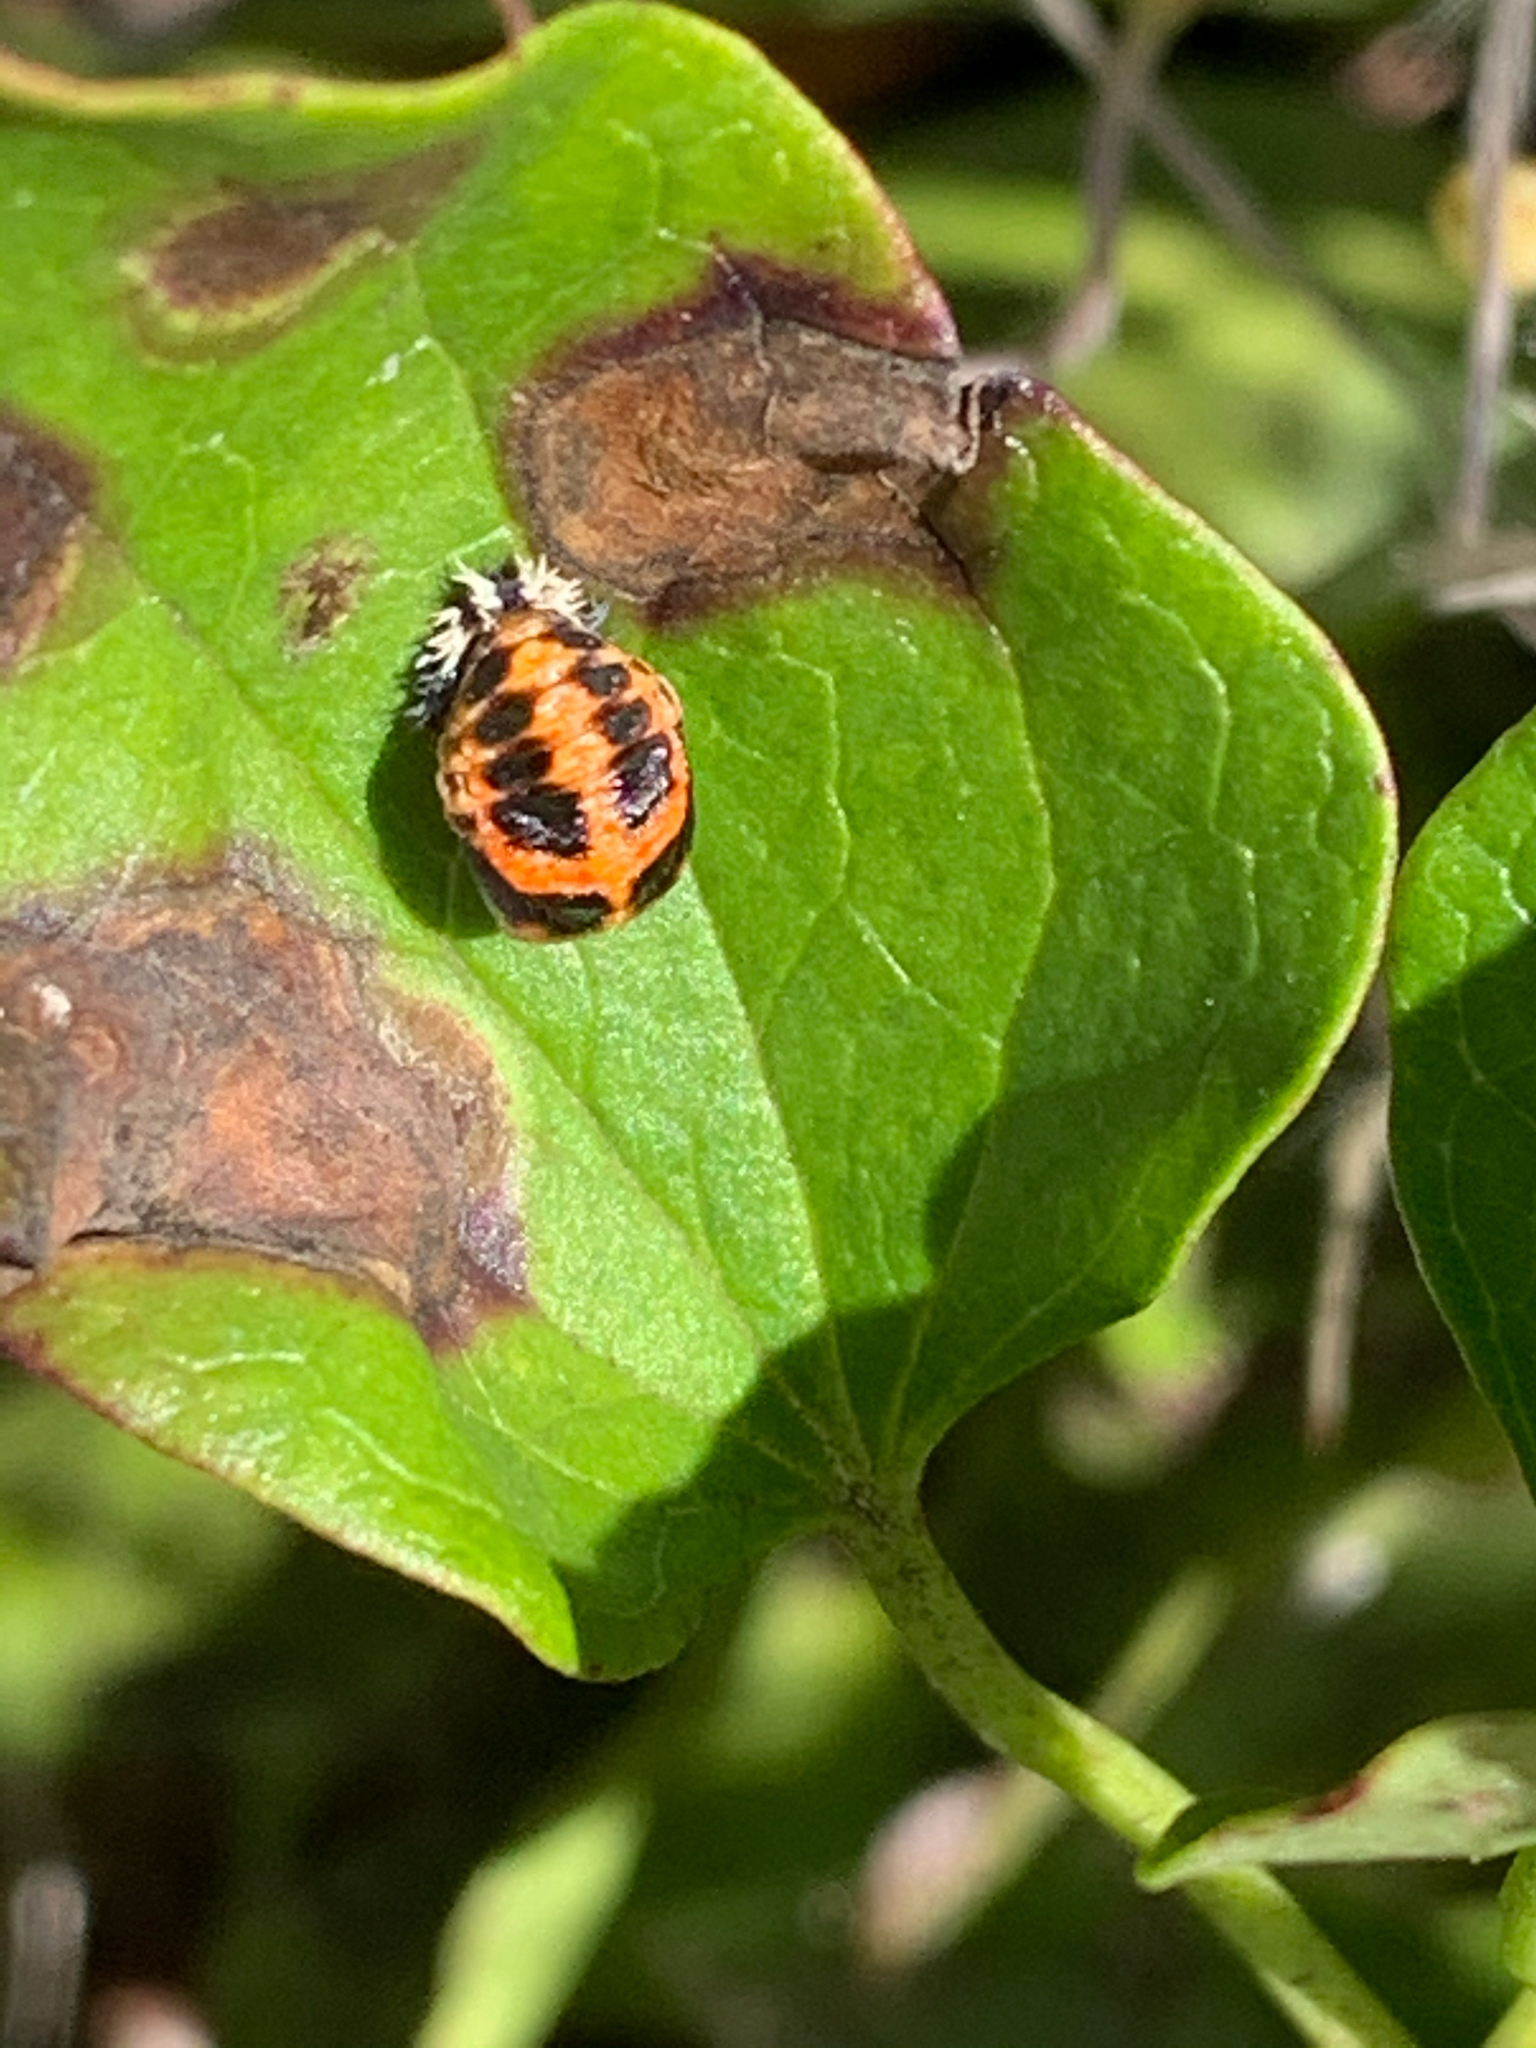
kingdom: Animalia
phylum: Arthropoda
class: Insecta
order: Coleoptera
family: Coccinellidae
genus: Harmonia
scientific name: Harmonia axyridis
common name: Harlequin ladybird
